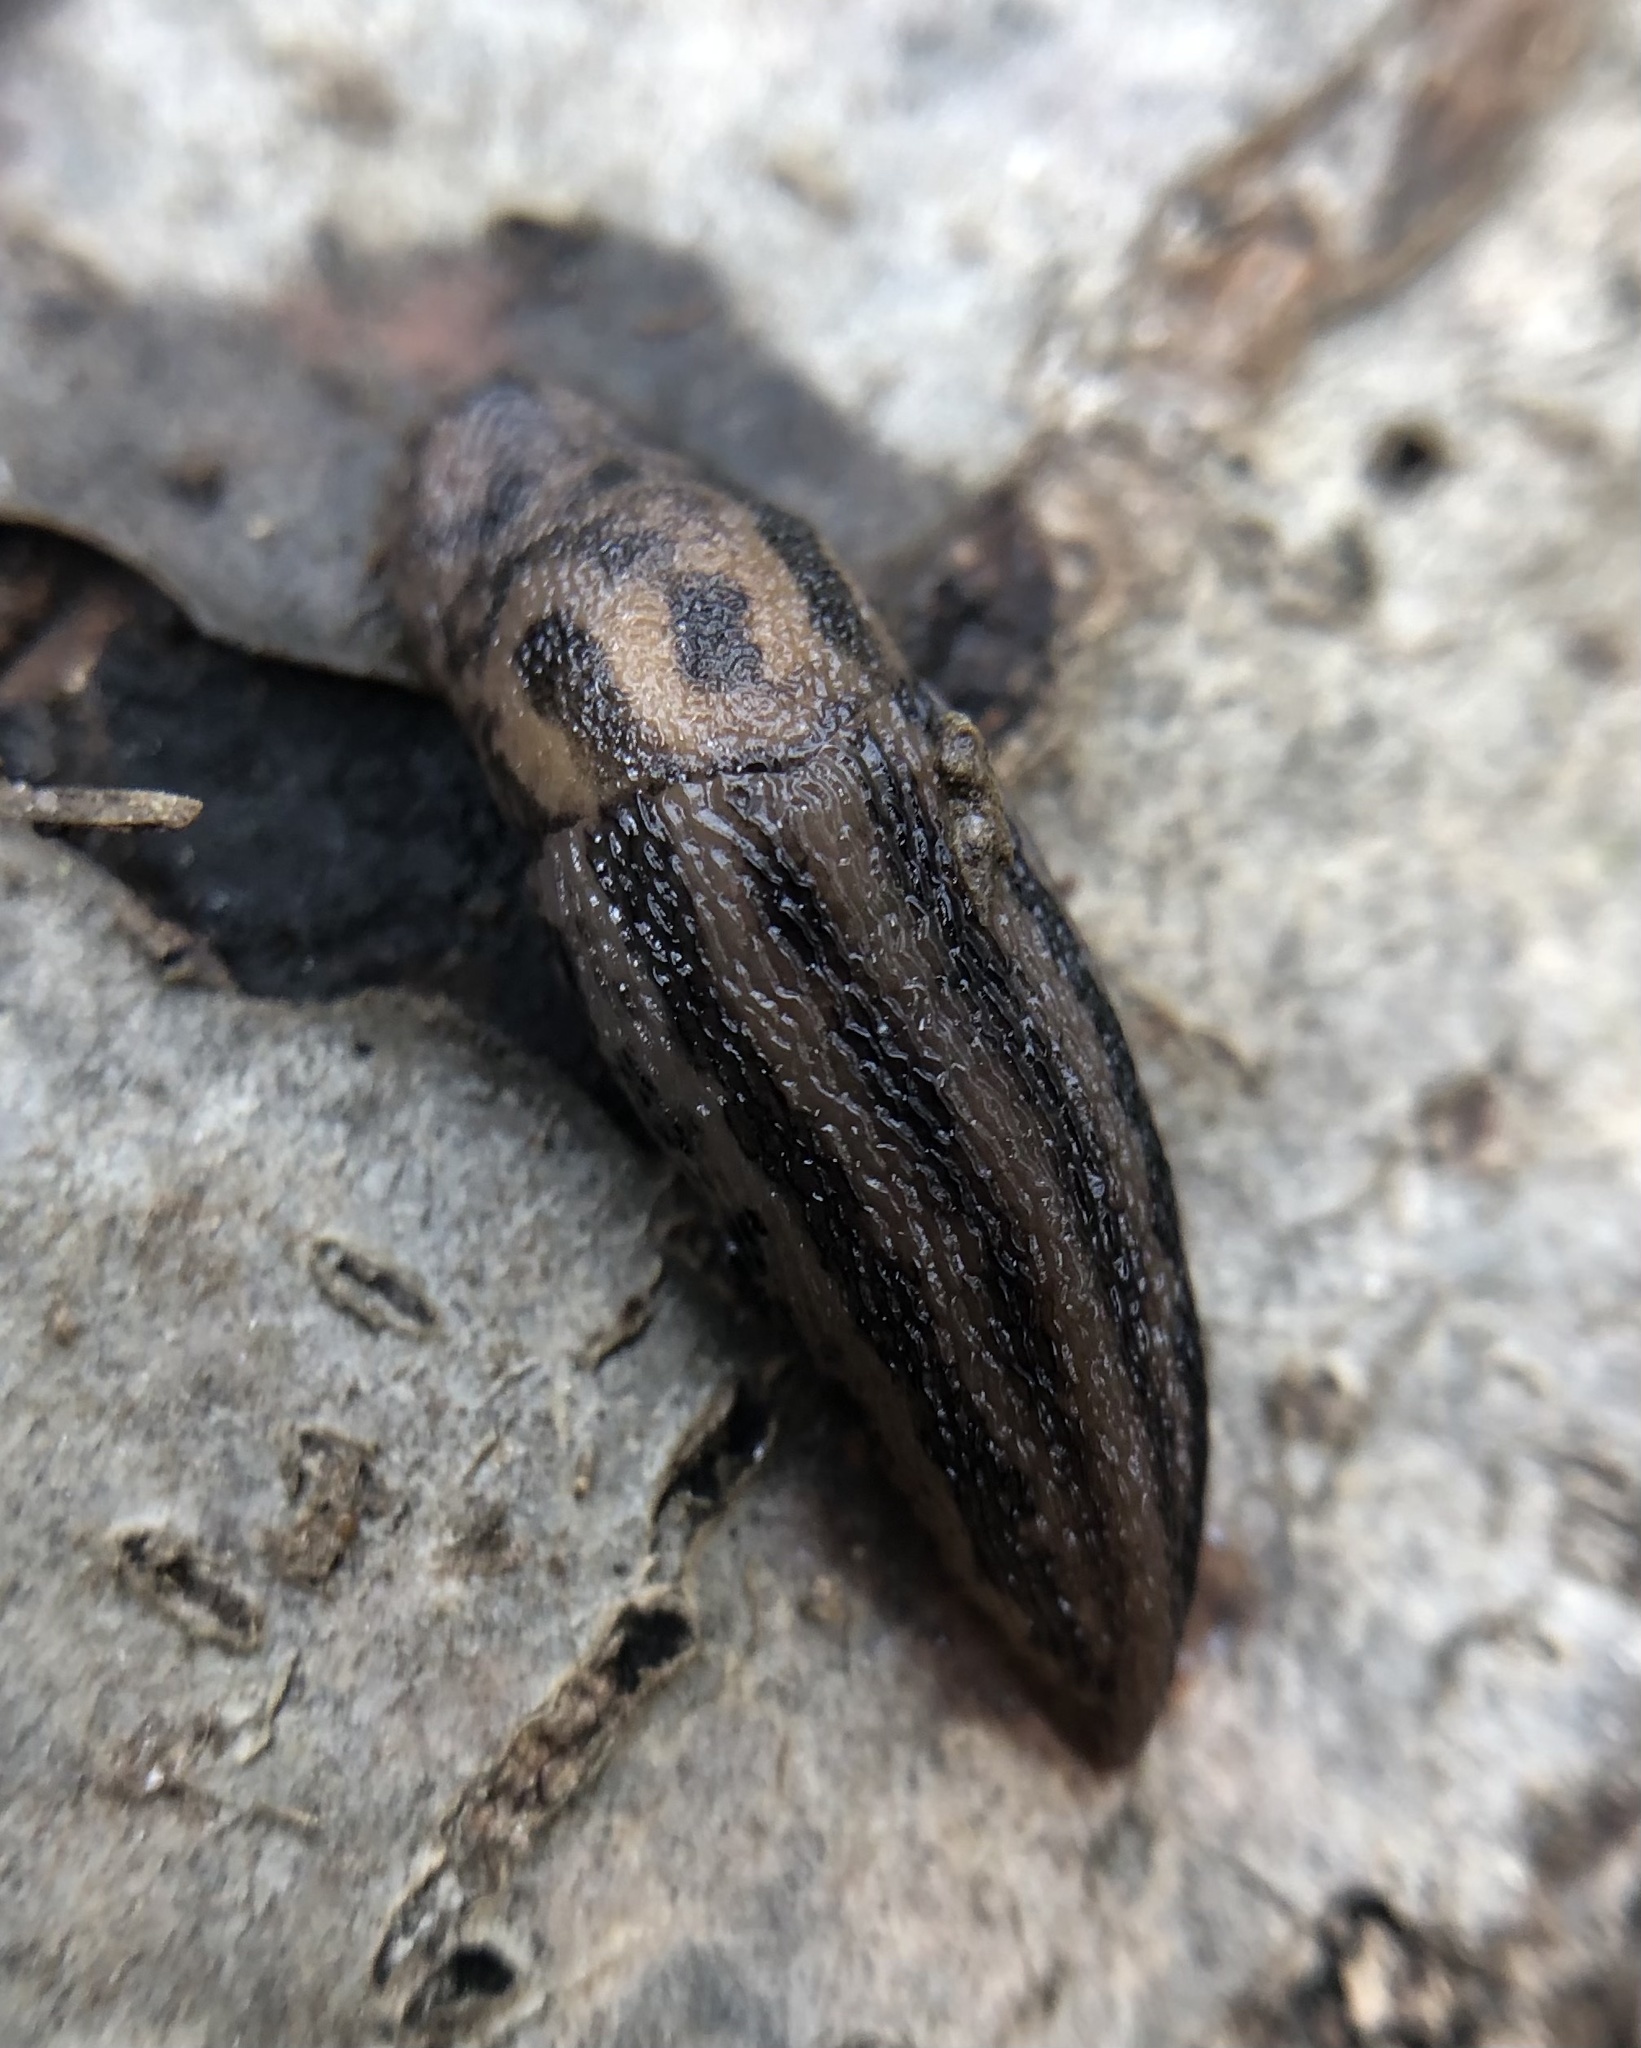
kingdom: Animalia
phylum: Mollusca
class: Gastropoda
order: Stylommatophora
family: Limacidae
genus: Limax
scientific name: Limax maximus
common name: Great grey slug
